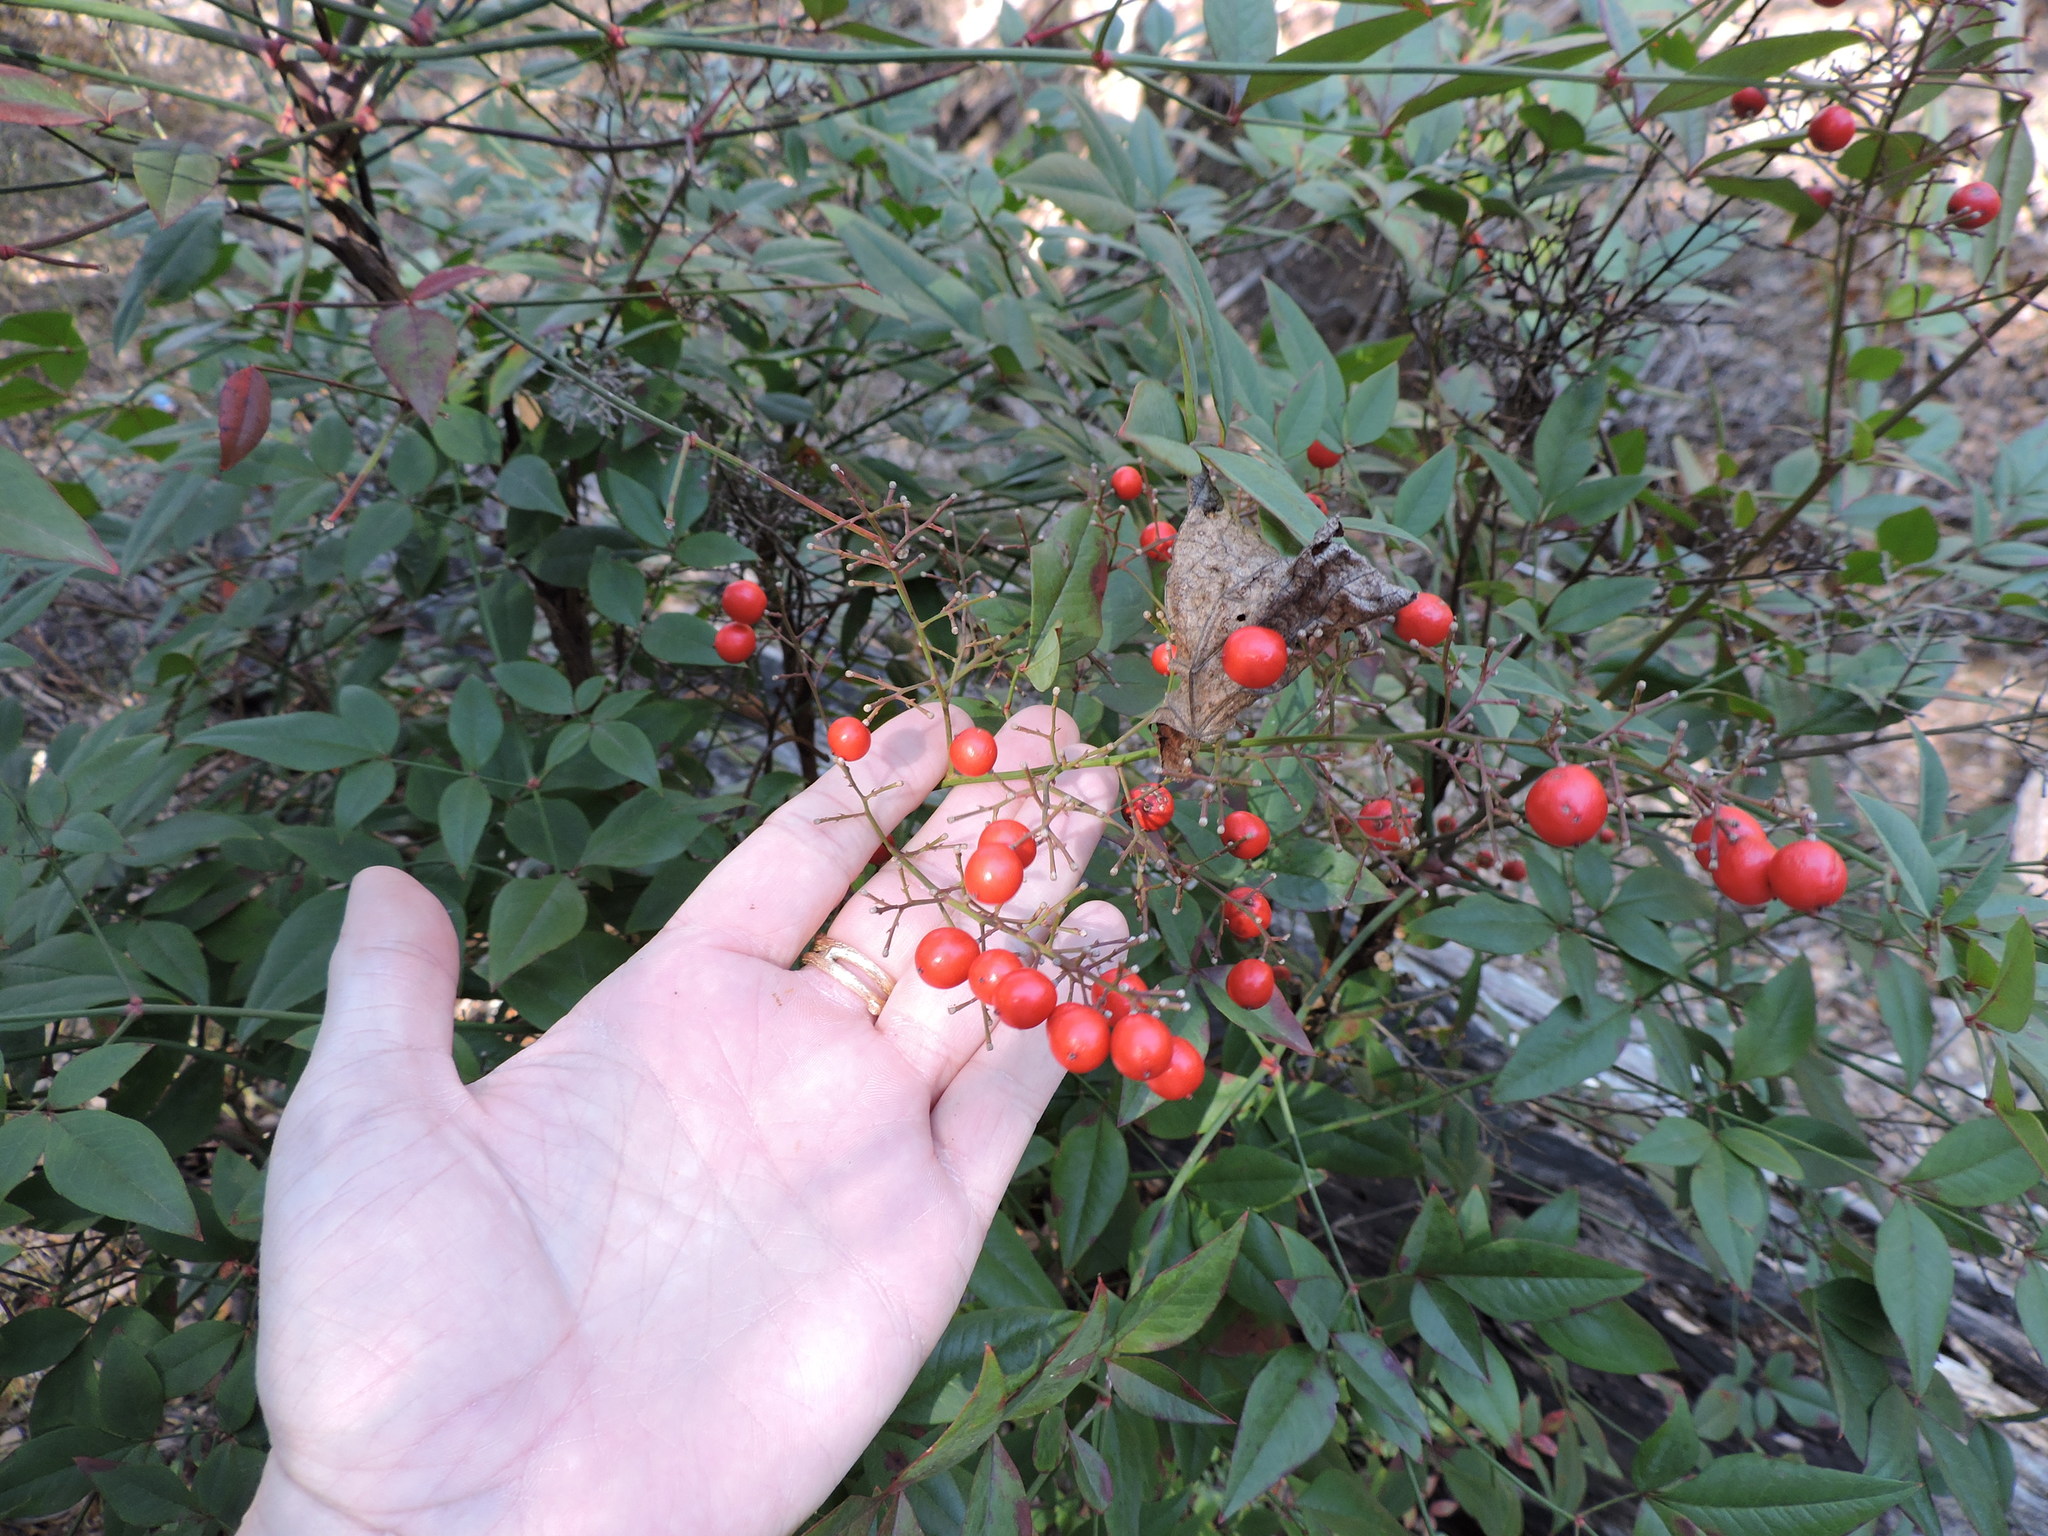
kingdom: Plantae
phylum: Tracheophyta
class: Magnoliopsida
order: Ranunculales
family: Berberidaceae
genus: Nandina
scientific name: Nandina domestica
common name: Sacred bamboo
